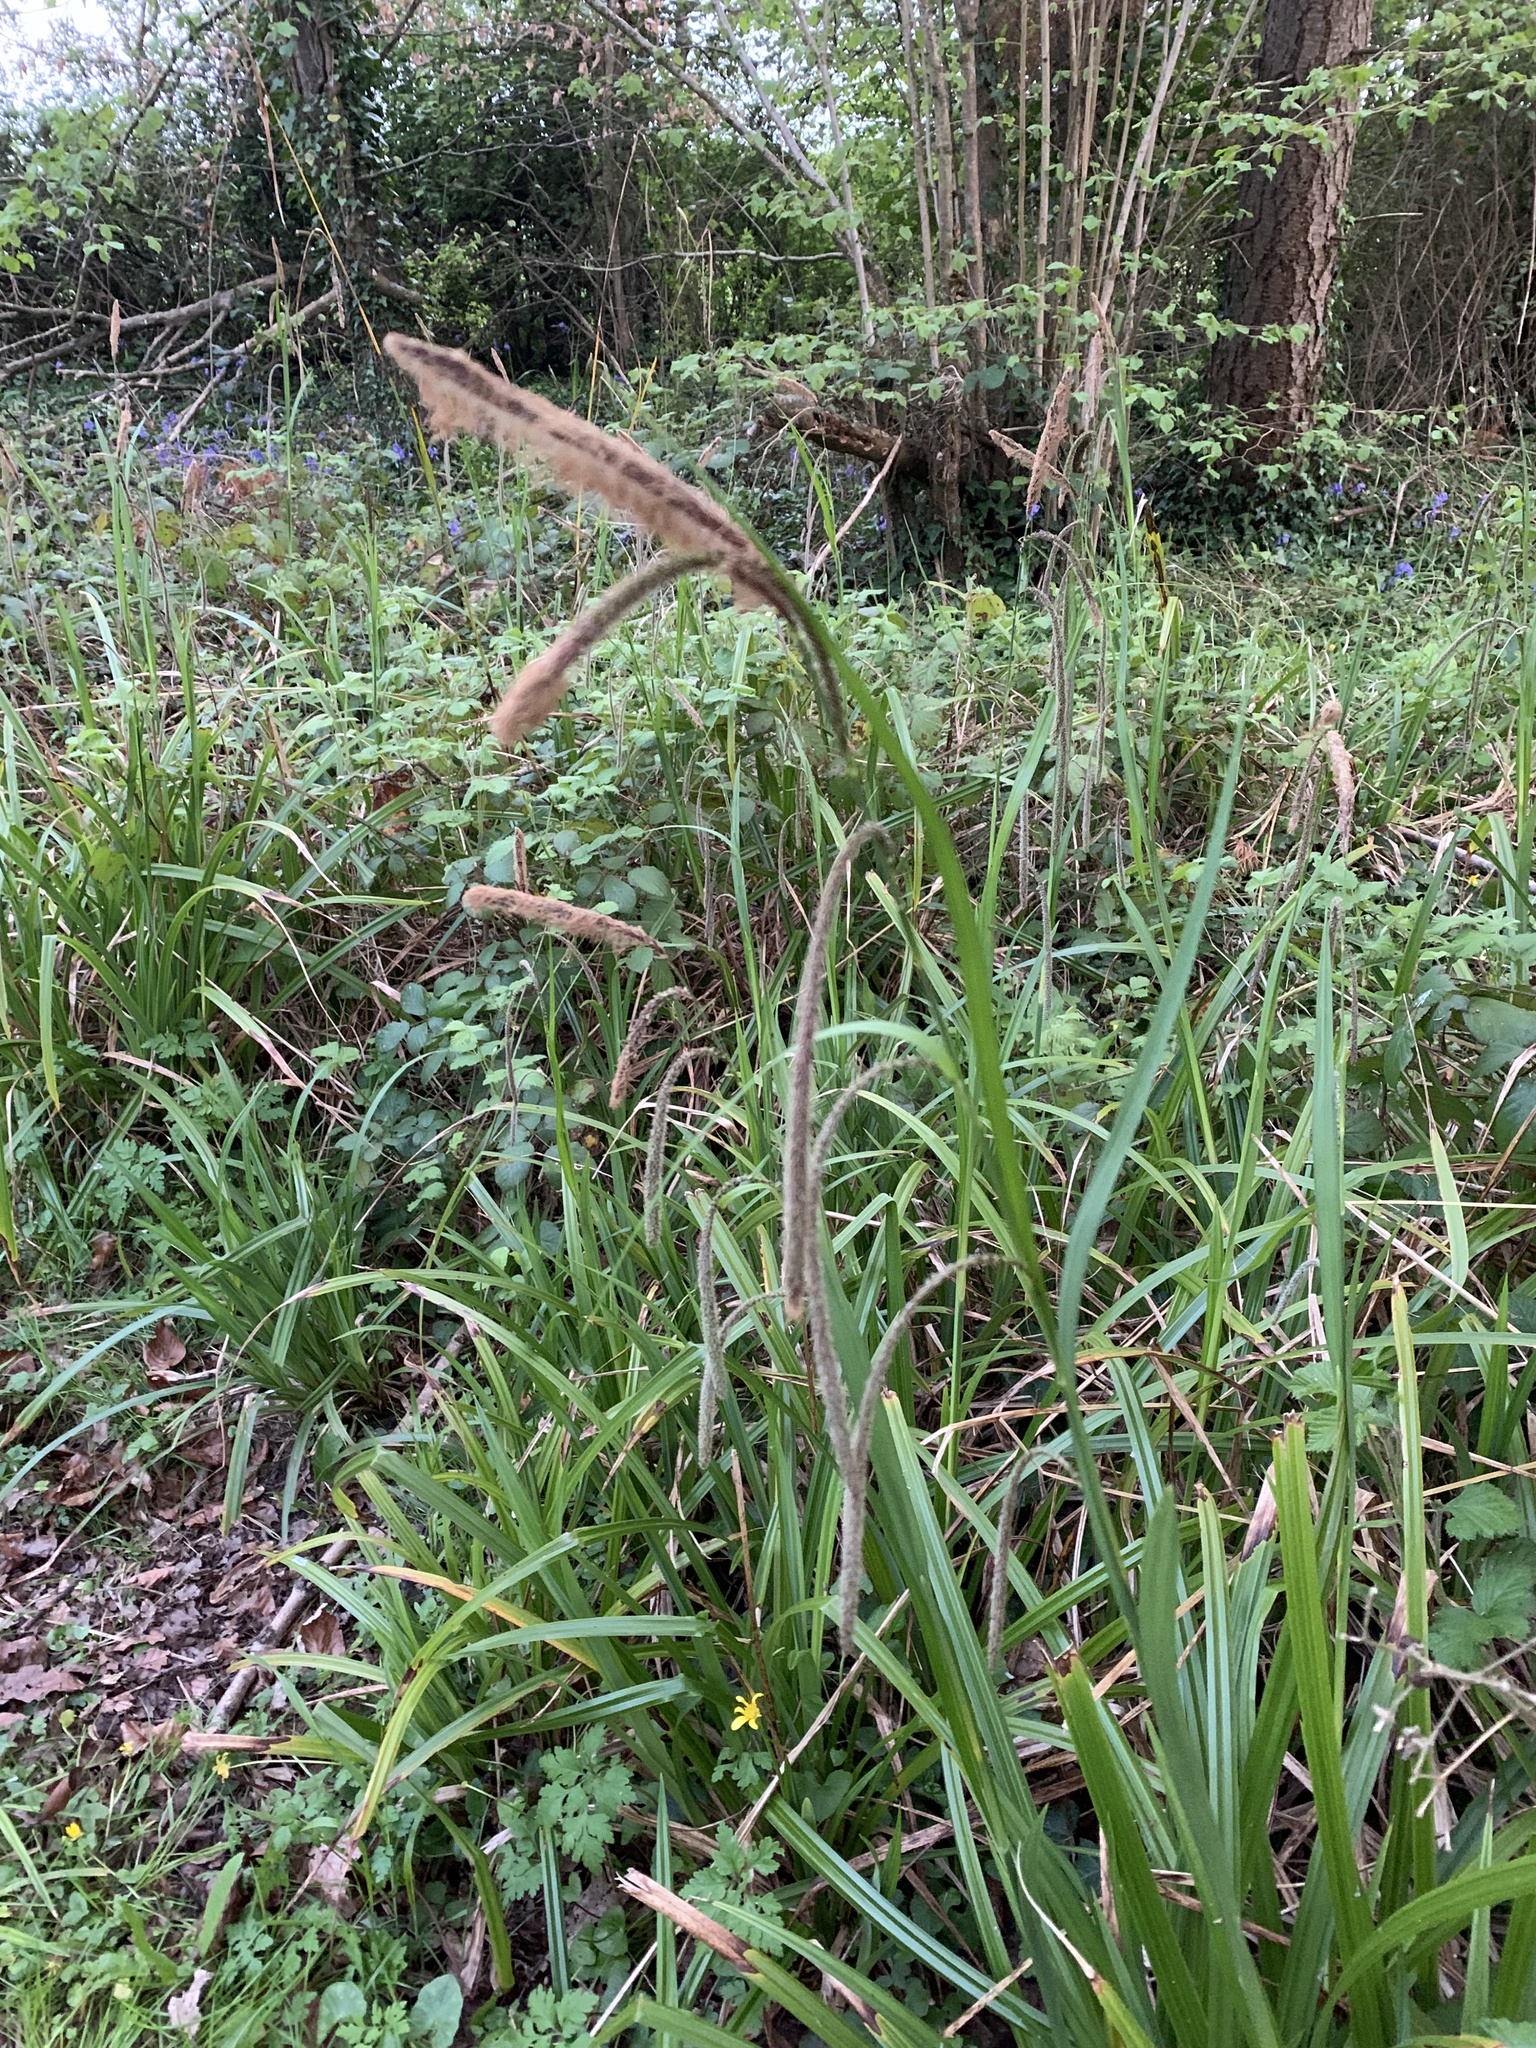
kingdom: Plantae
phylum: Tracheophyta
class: Liliopsida
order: Poales
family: Cyperaceae
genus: Carex
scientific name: Carex pendula
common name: Pendulous sedge
